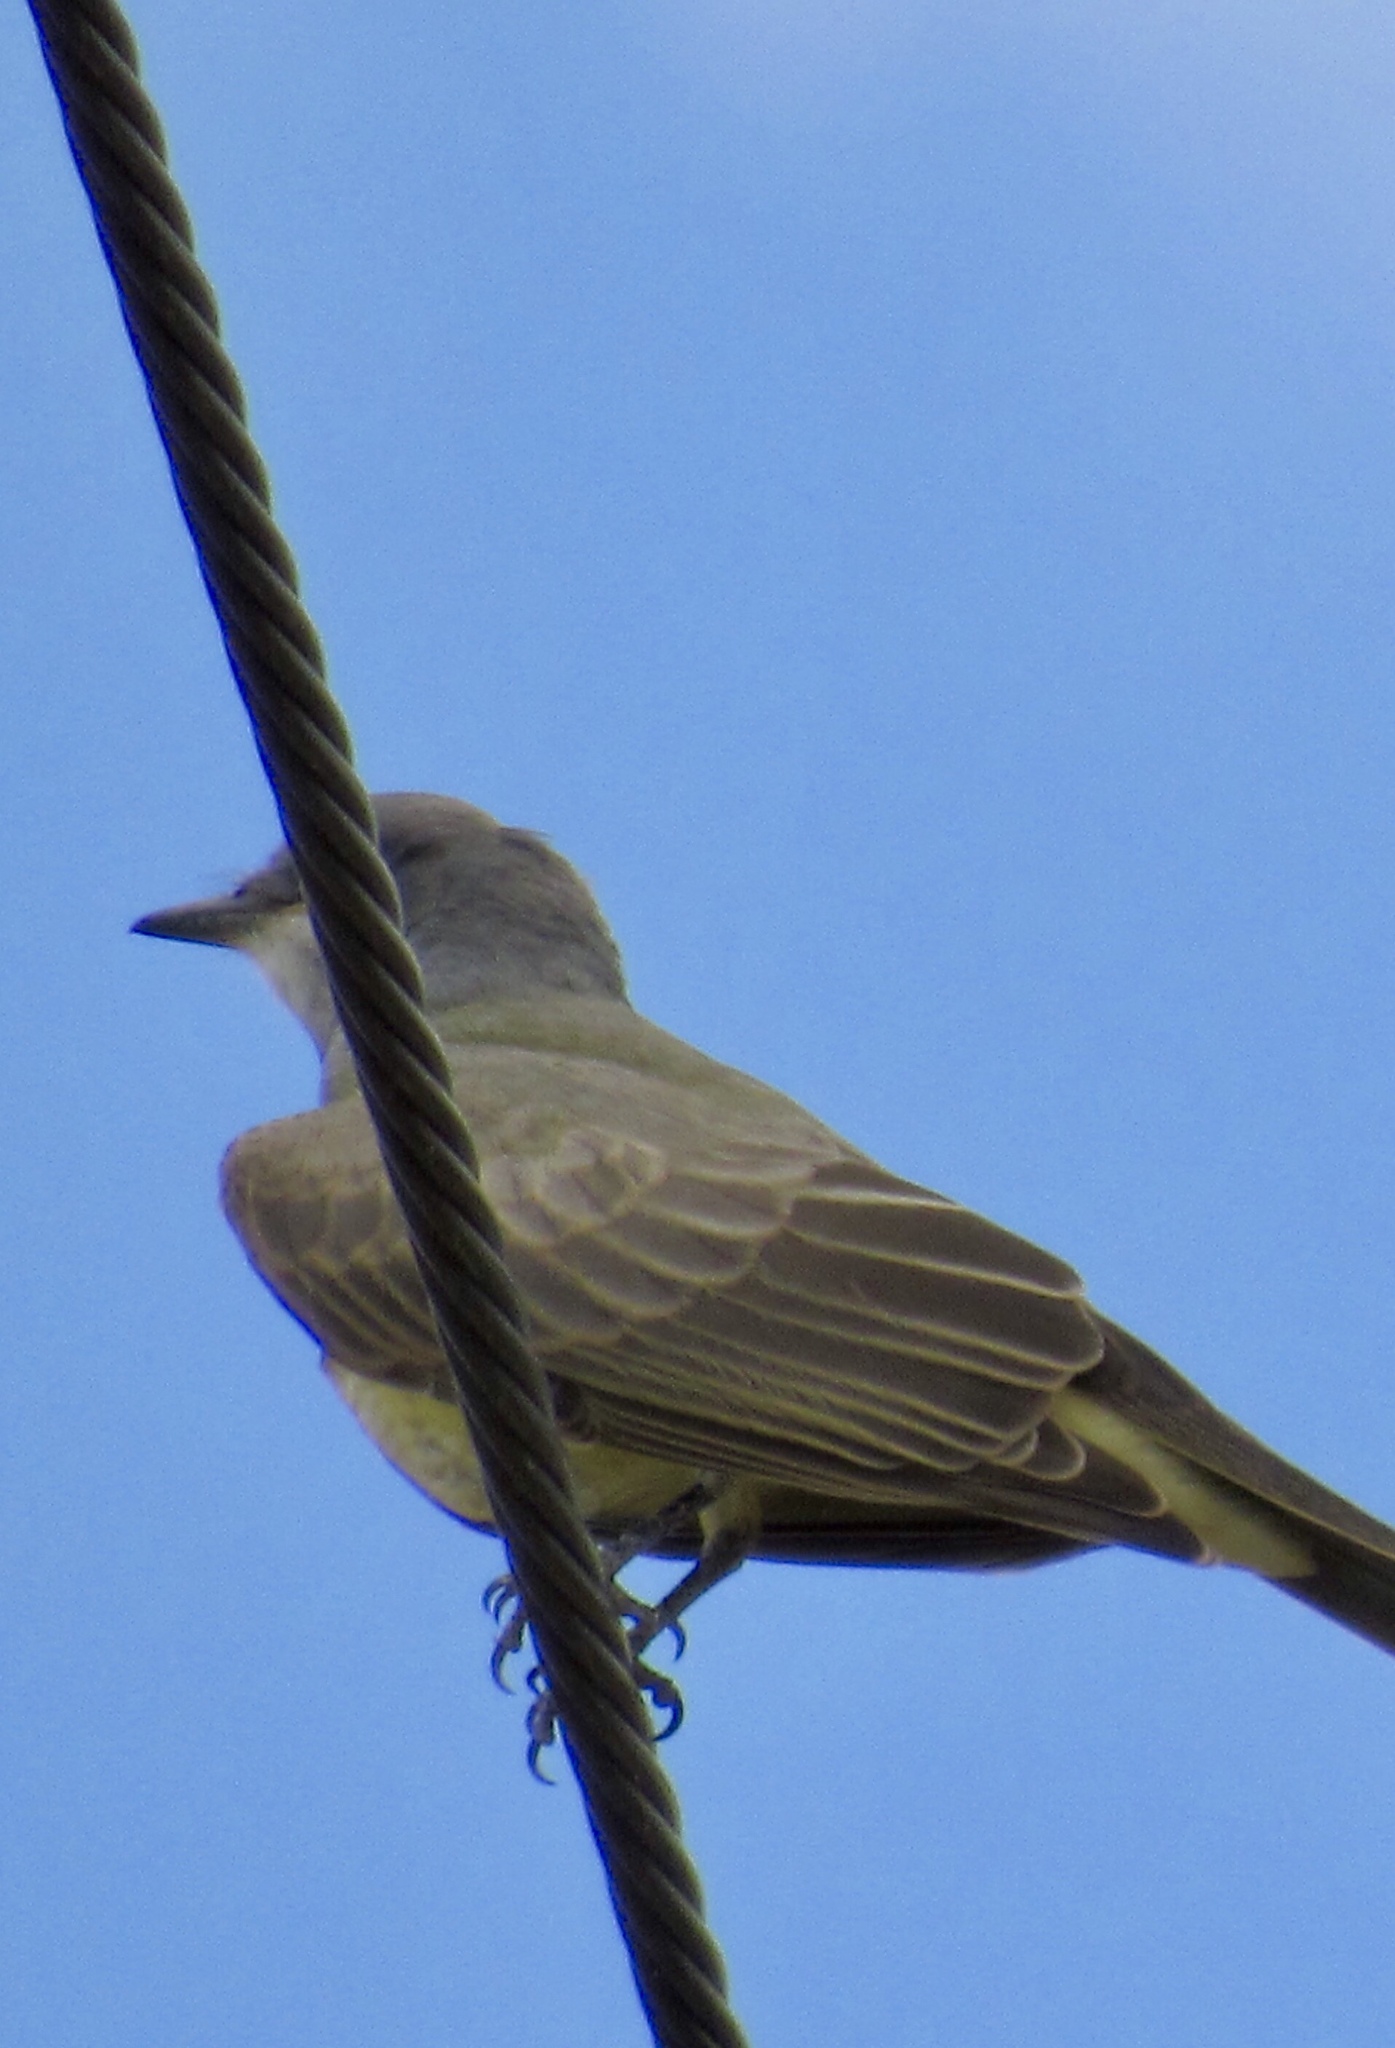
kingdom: Animalia
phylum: Chordata
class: Aves
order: Passeriformes
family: Tyrannidae
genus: Tyrannus
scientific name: Tyrannus vociferans
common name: Cassin's kingbird
